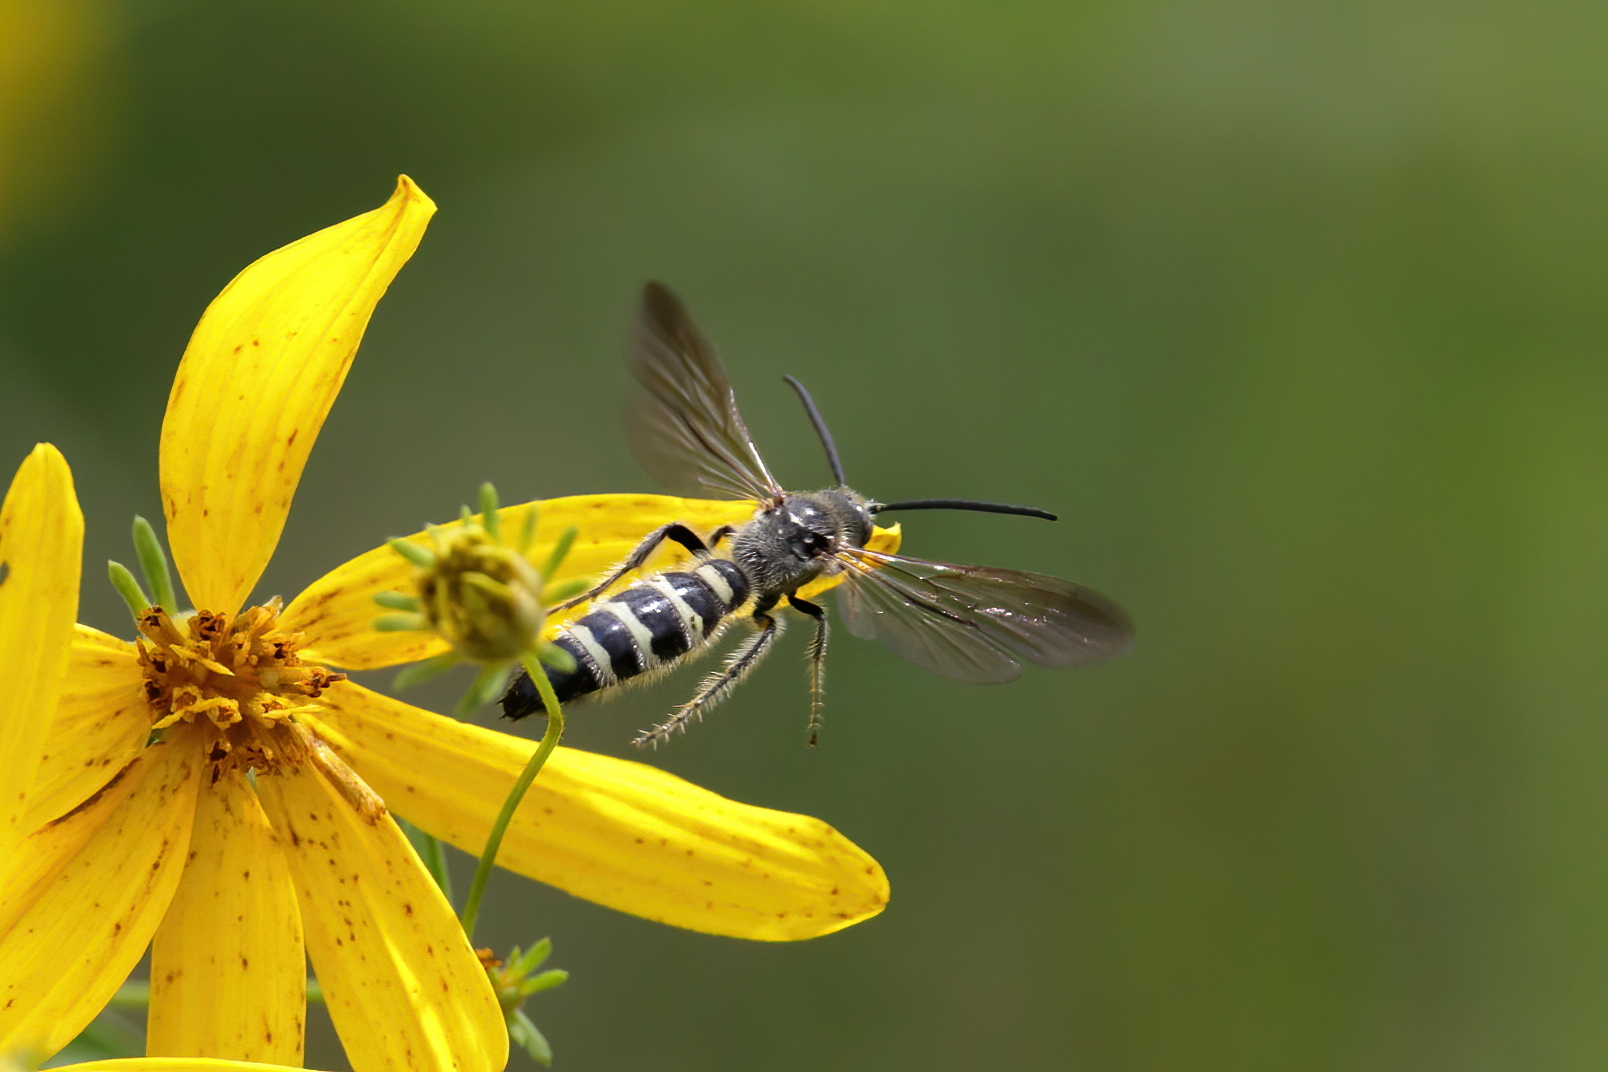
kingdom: Animalia
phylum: Arthropoda
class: Insecta
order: Hymenoptera
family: Scoliidae
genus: Dielis
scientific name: Dielis
